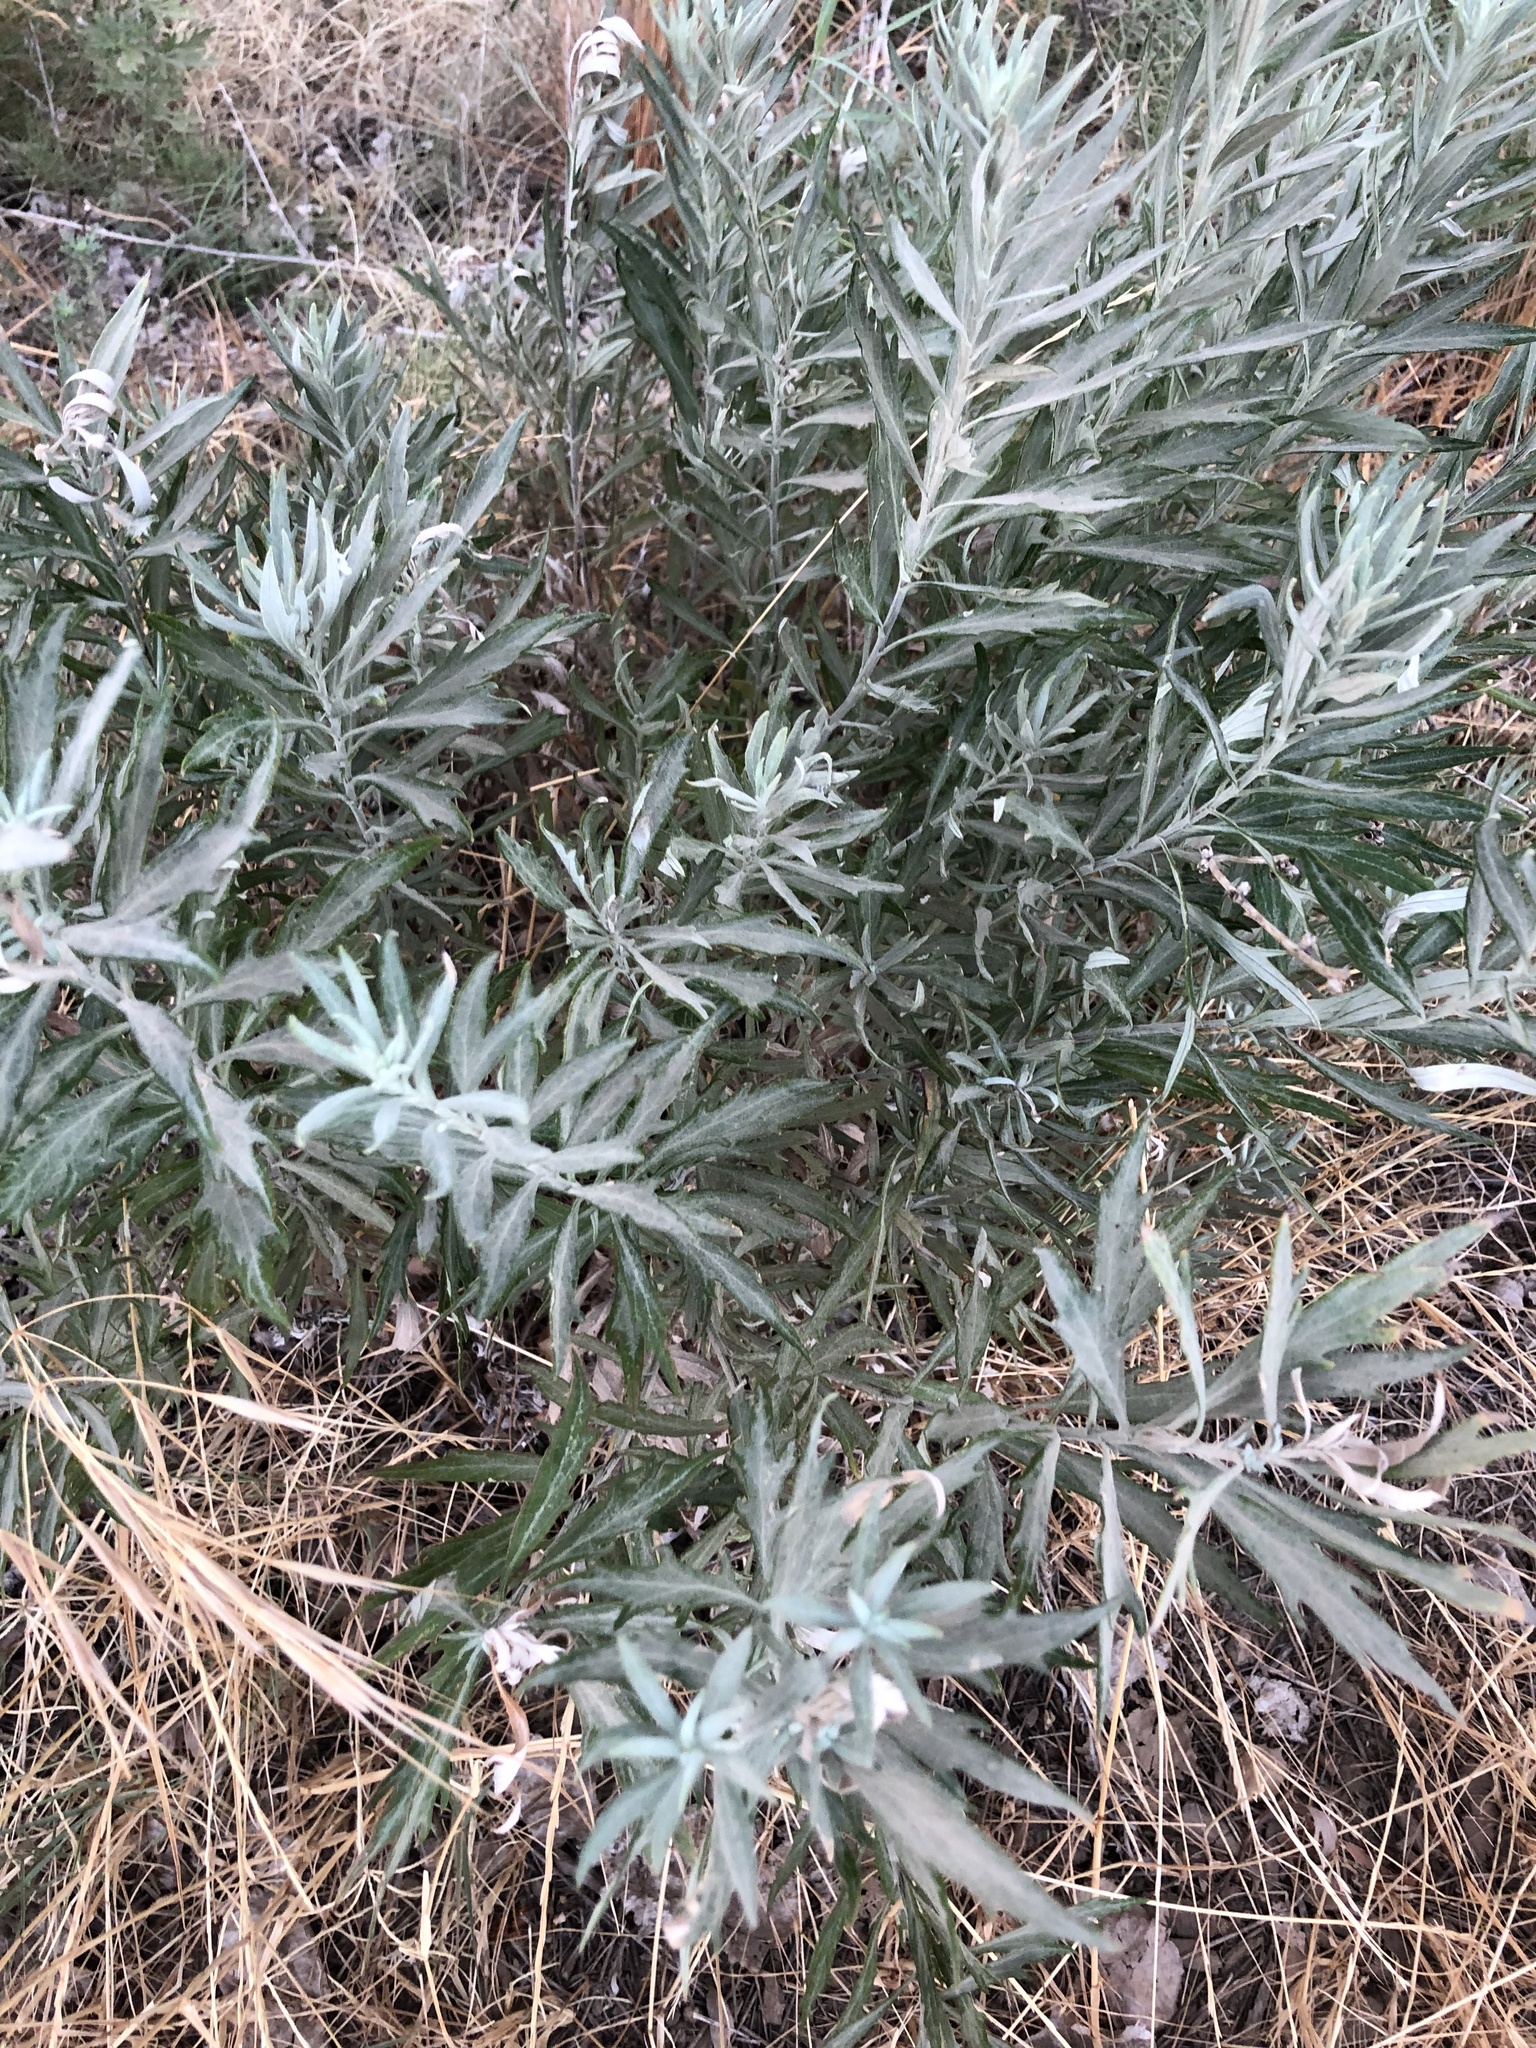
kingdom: Plantae
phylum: Tracheophyta
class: Magnoliopsida
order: Asterales
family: Asteraceae
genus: Artemisia
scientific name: Artemisia douglasiana
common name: Northwest mugwort
